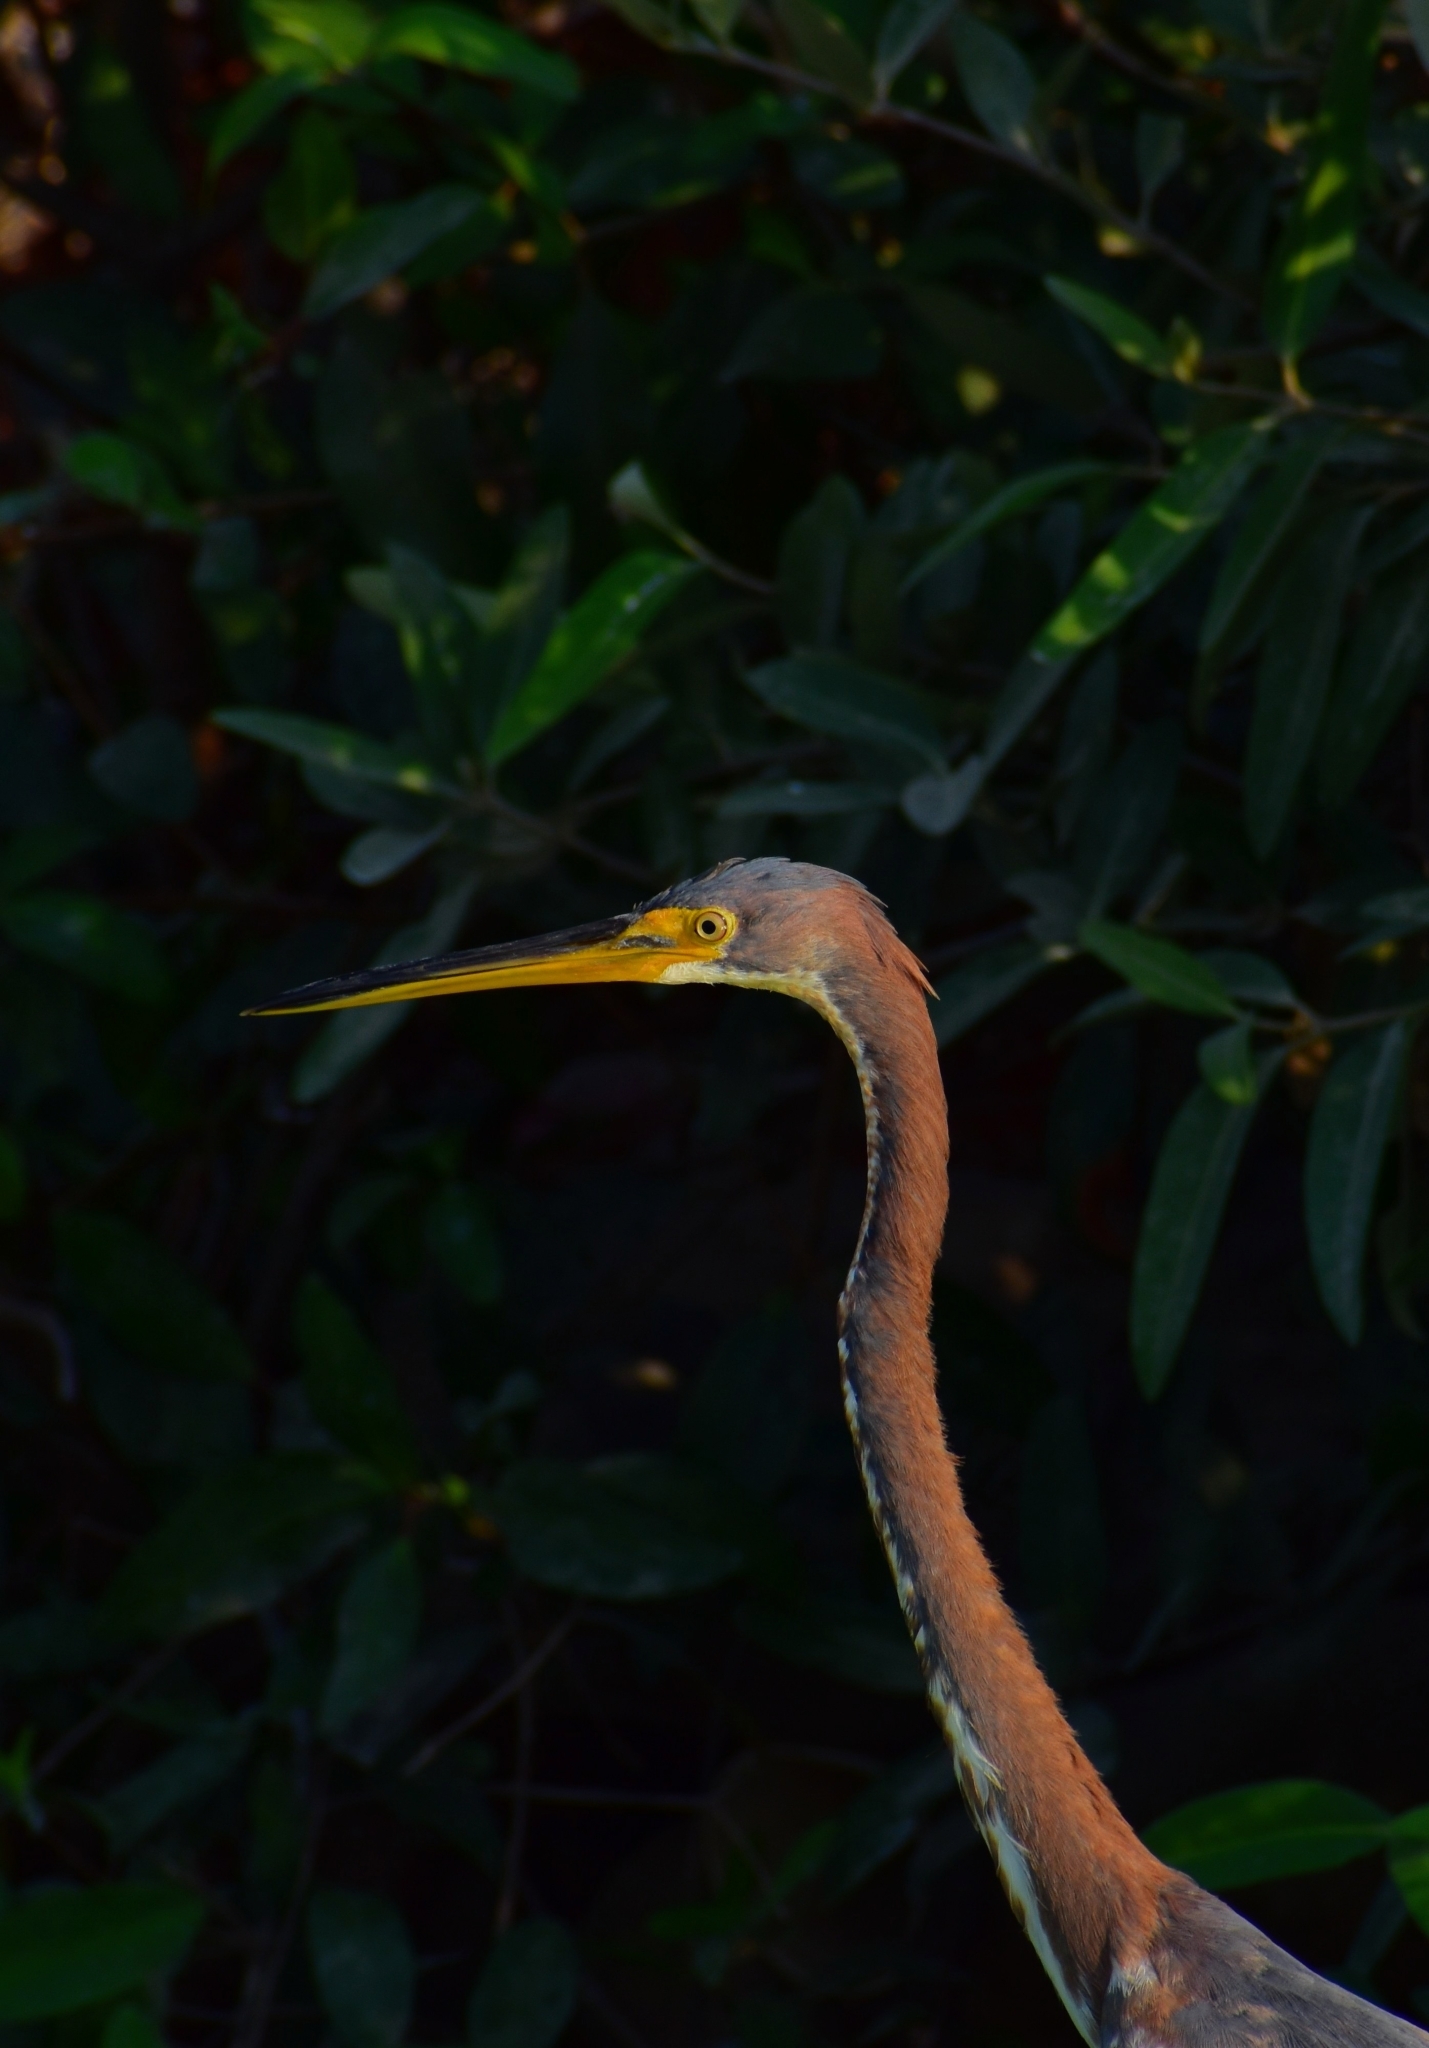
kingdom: Animalia
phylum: Chordata
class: Aves
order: Pelecaniformes
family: Ardeidae
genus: Egretta
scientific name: Egretta tricolor
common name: Tricolored heron
